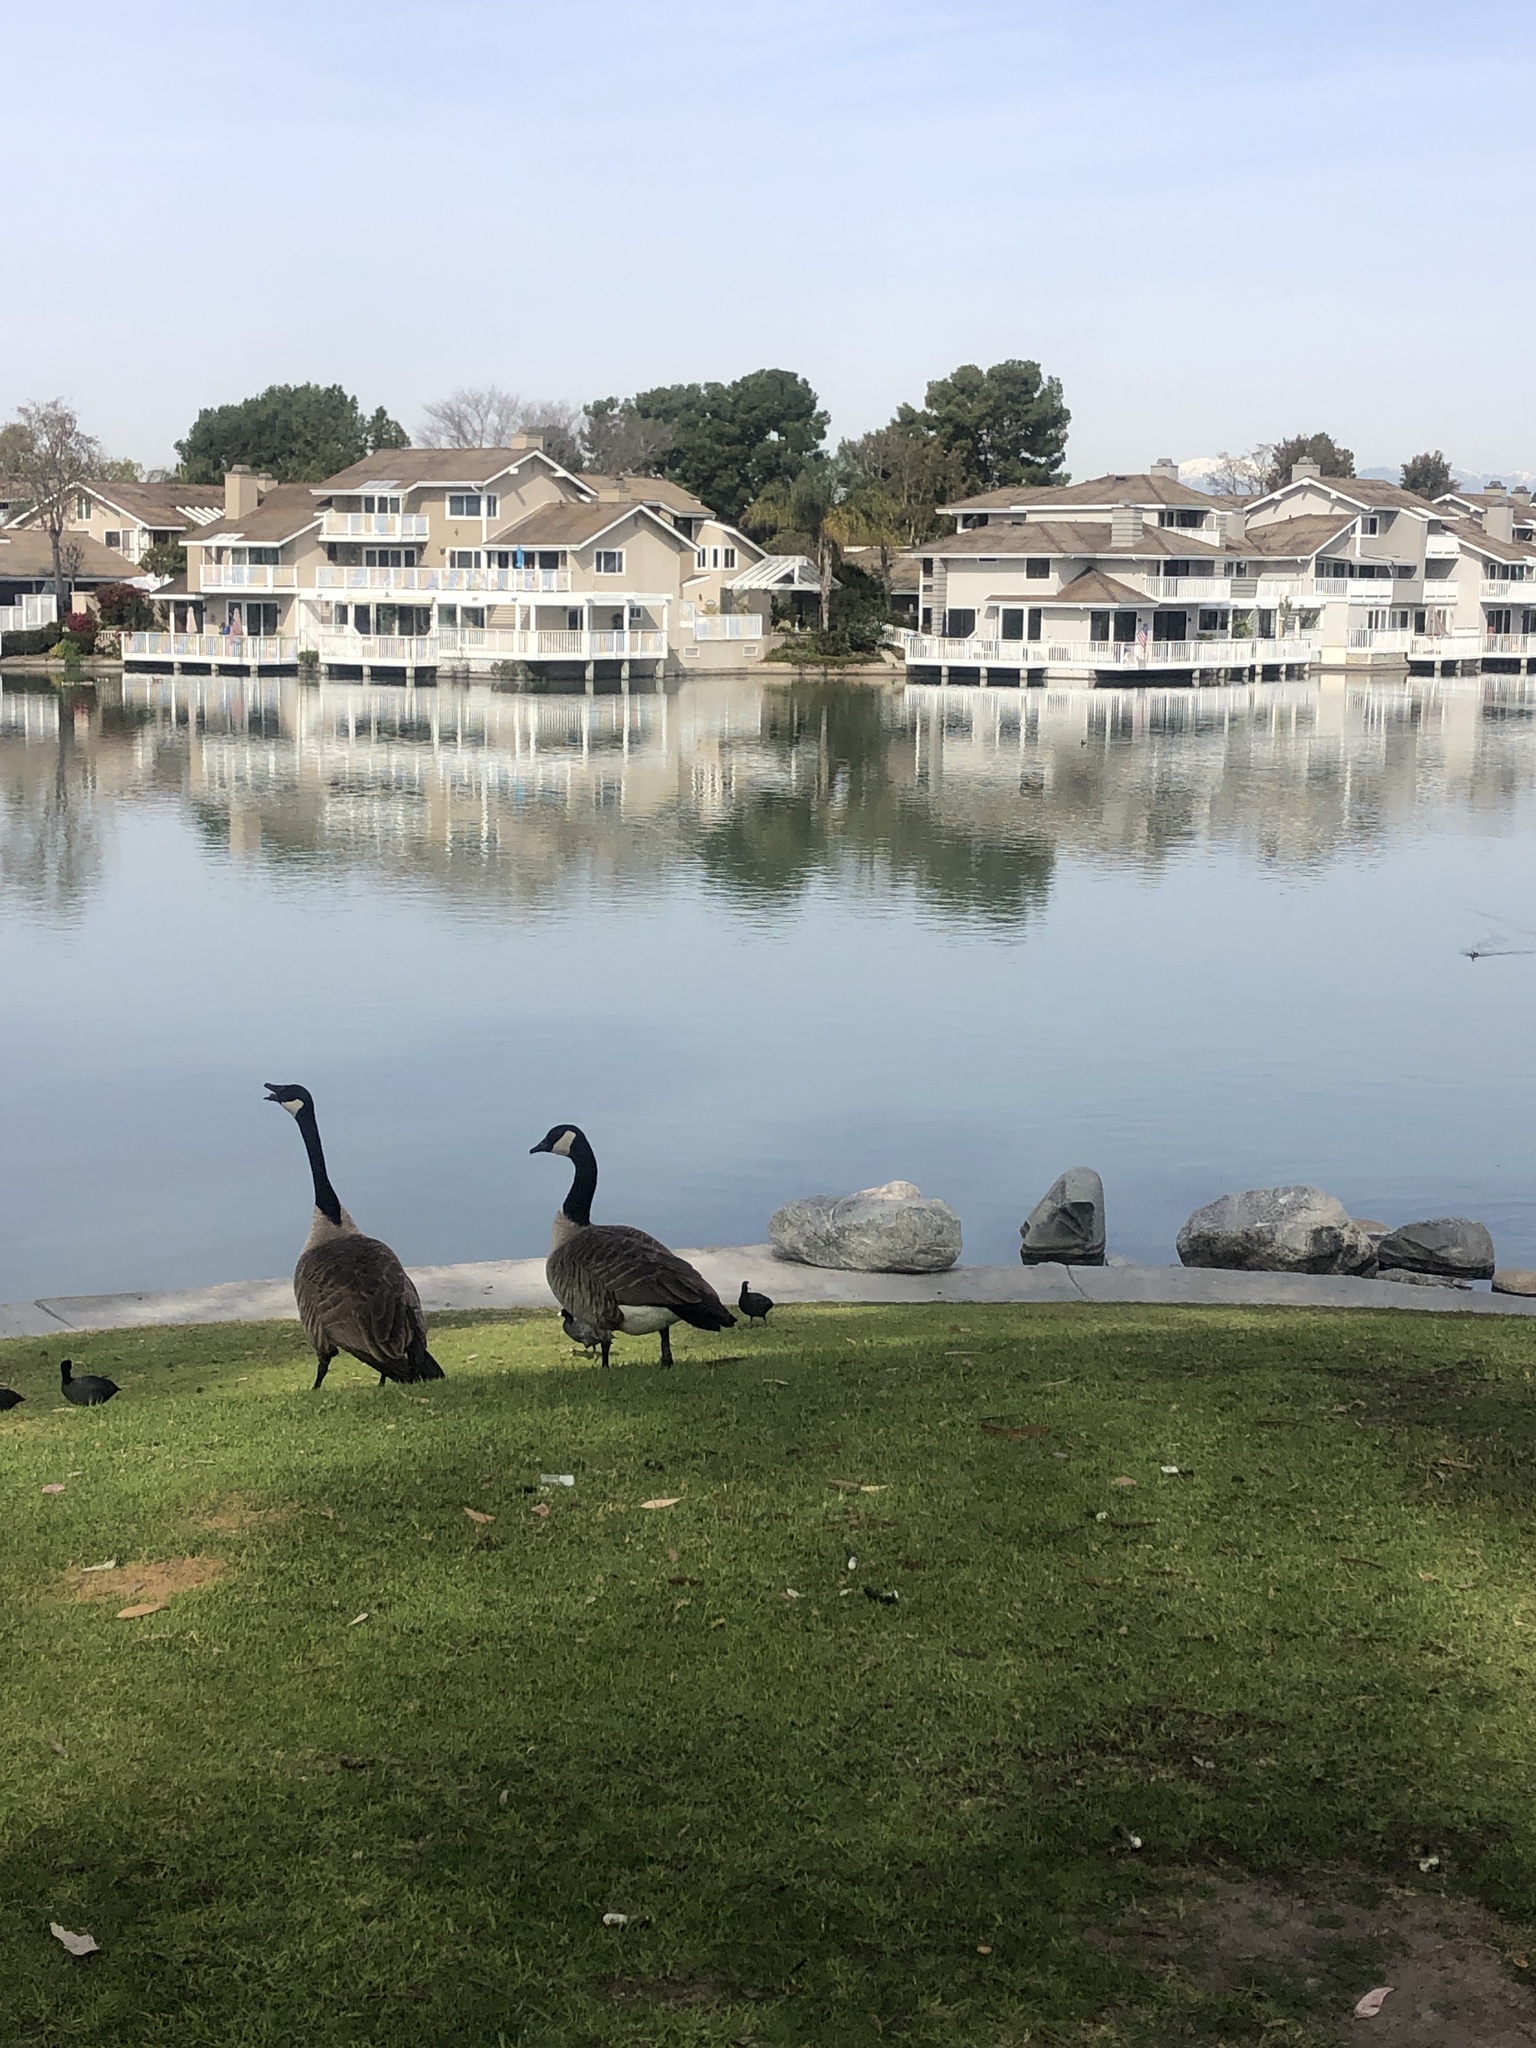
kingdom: Animalia
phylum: Chordata
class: Aves
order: Anseriformes
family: Anatidae
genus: Branta
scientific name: Branta canadensis
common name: Canada goose
